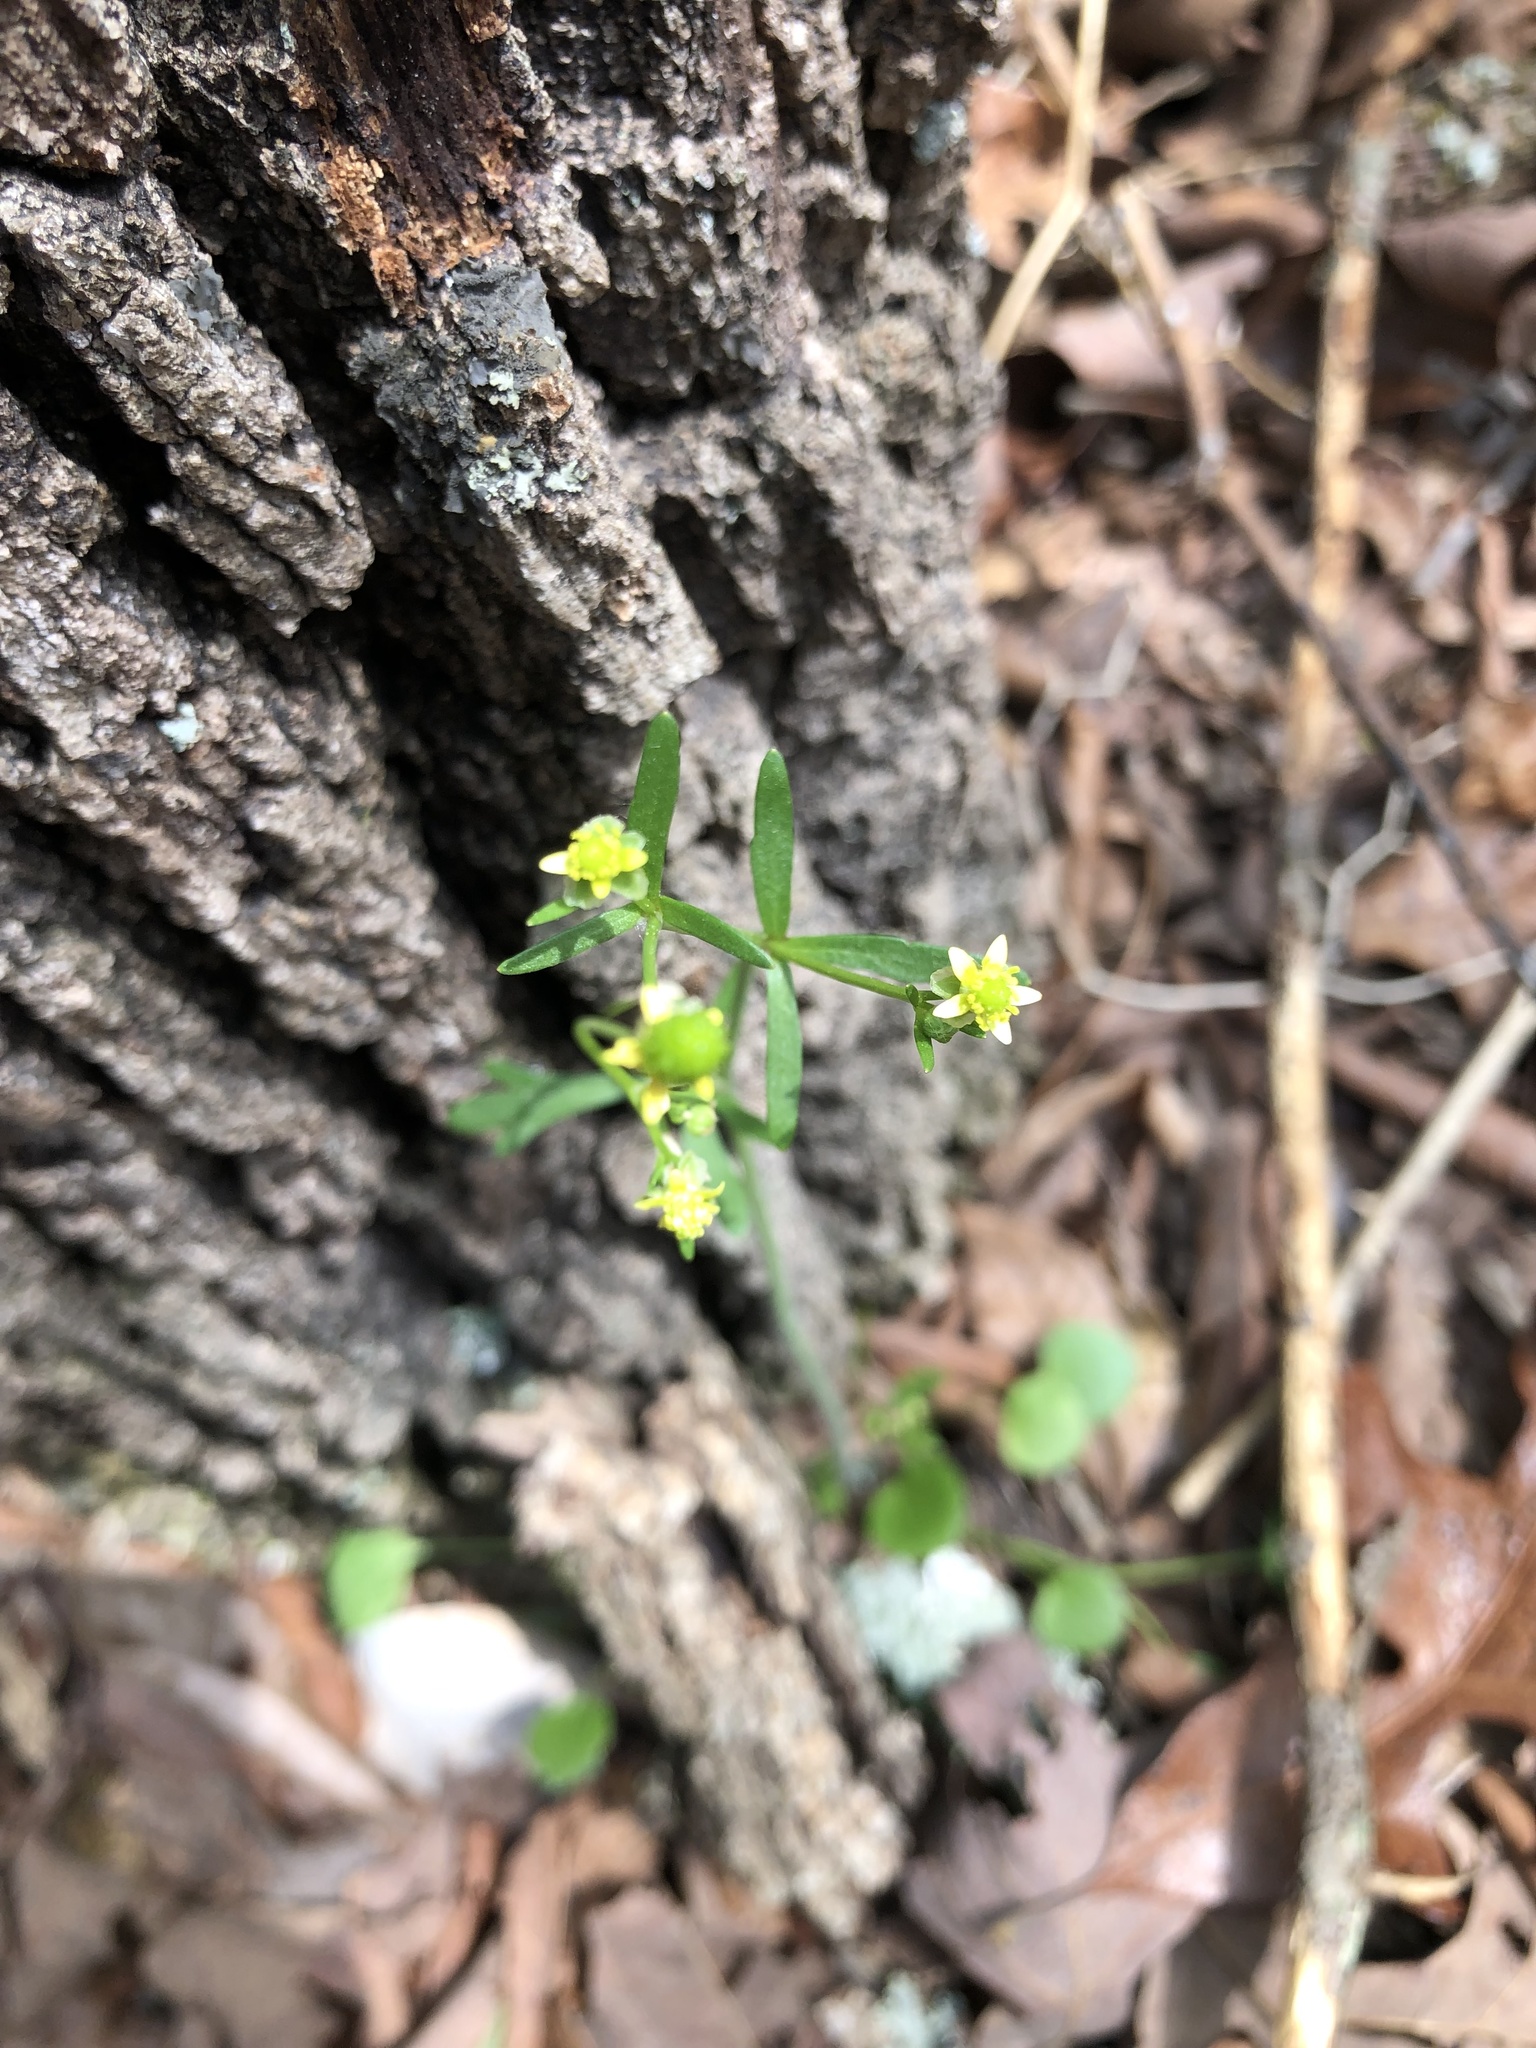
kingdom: Plantae
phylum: Tracheophyta
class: Magnoliopsida
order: Ranunculales
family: Ranunculaceae
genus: Ranunculus
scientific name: Ranunculus micranthus
